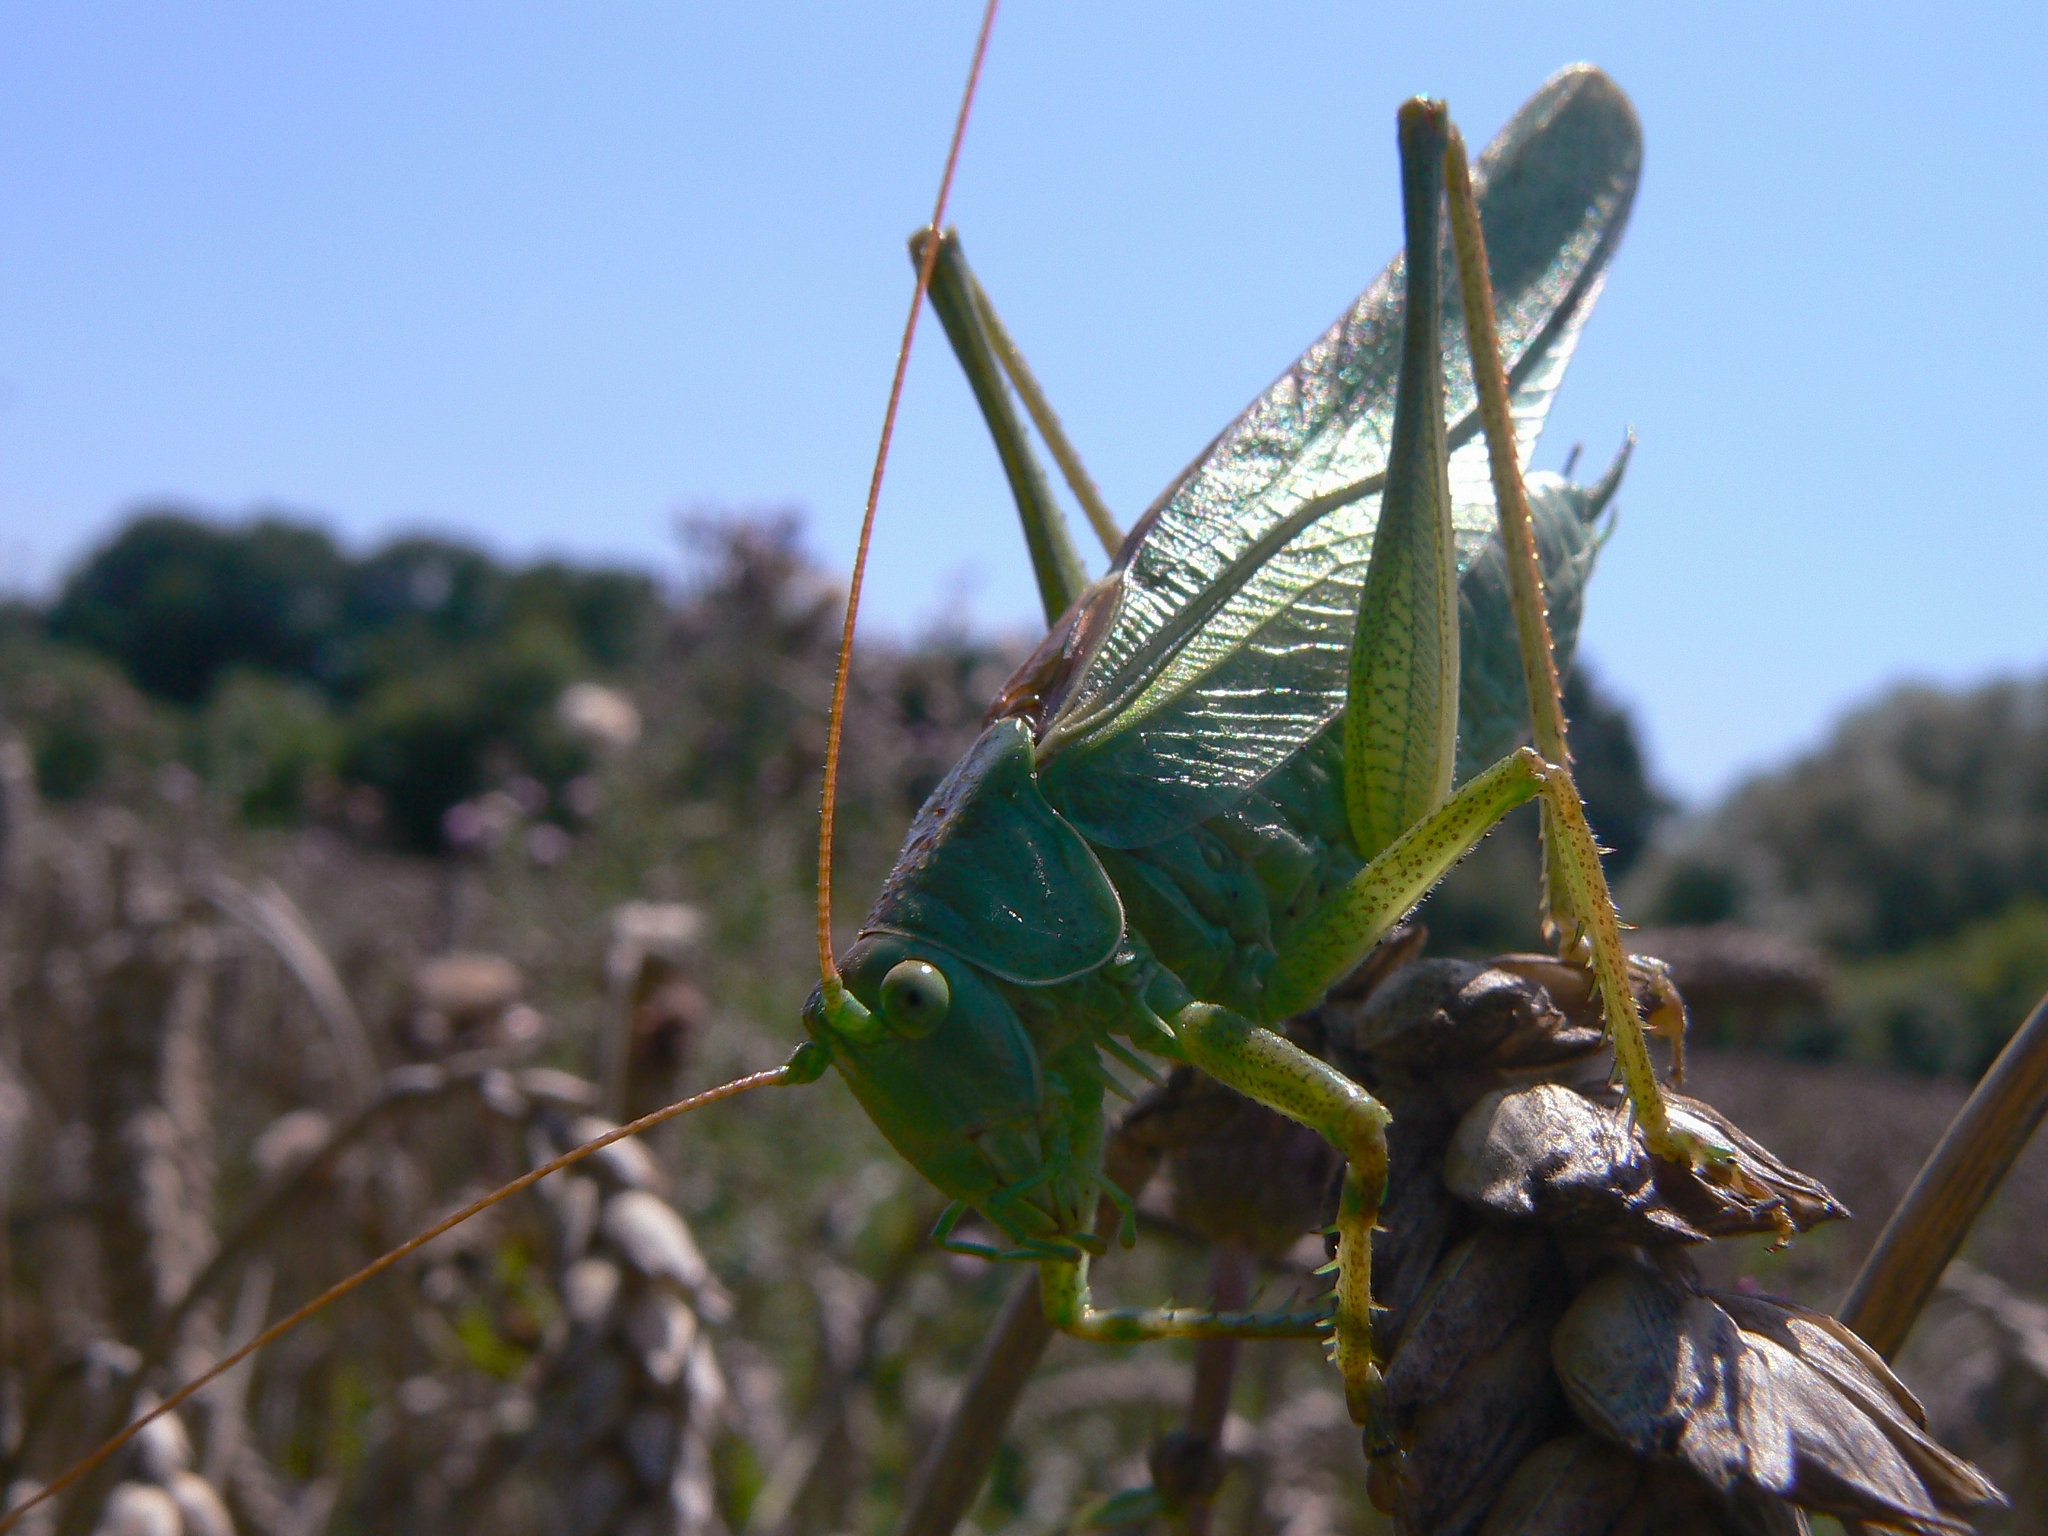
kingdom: Animalia
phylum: Arthropoda
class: Insecta
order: Orthoptera
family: Tettigoniidae
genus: Tettigonia
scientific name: Tettigonia viridissima
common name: Great green bush-cricket
